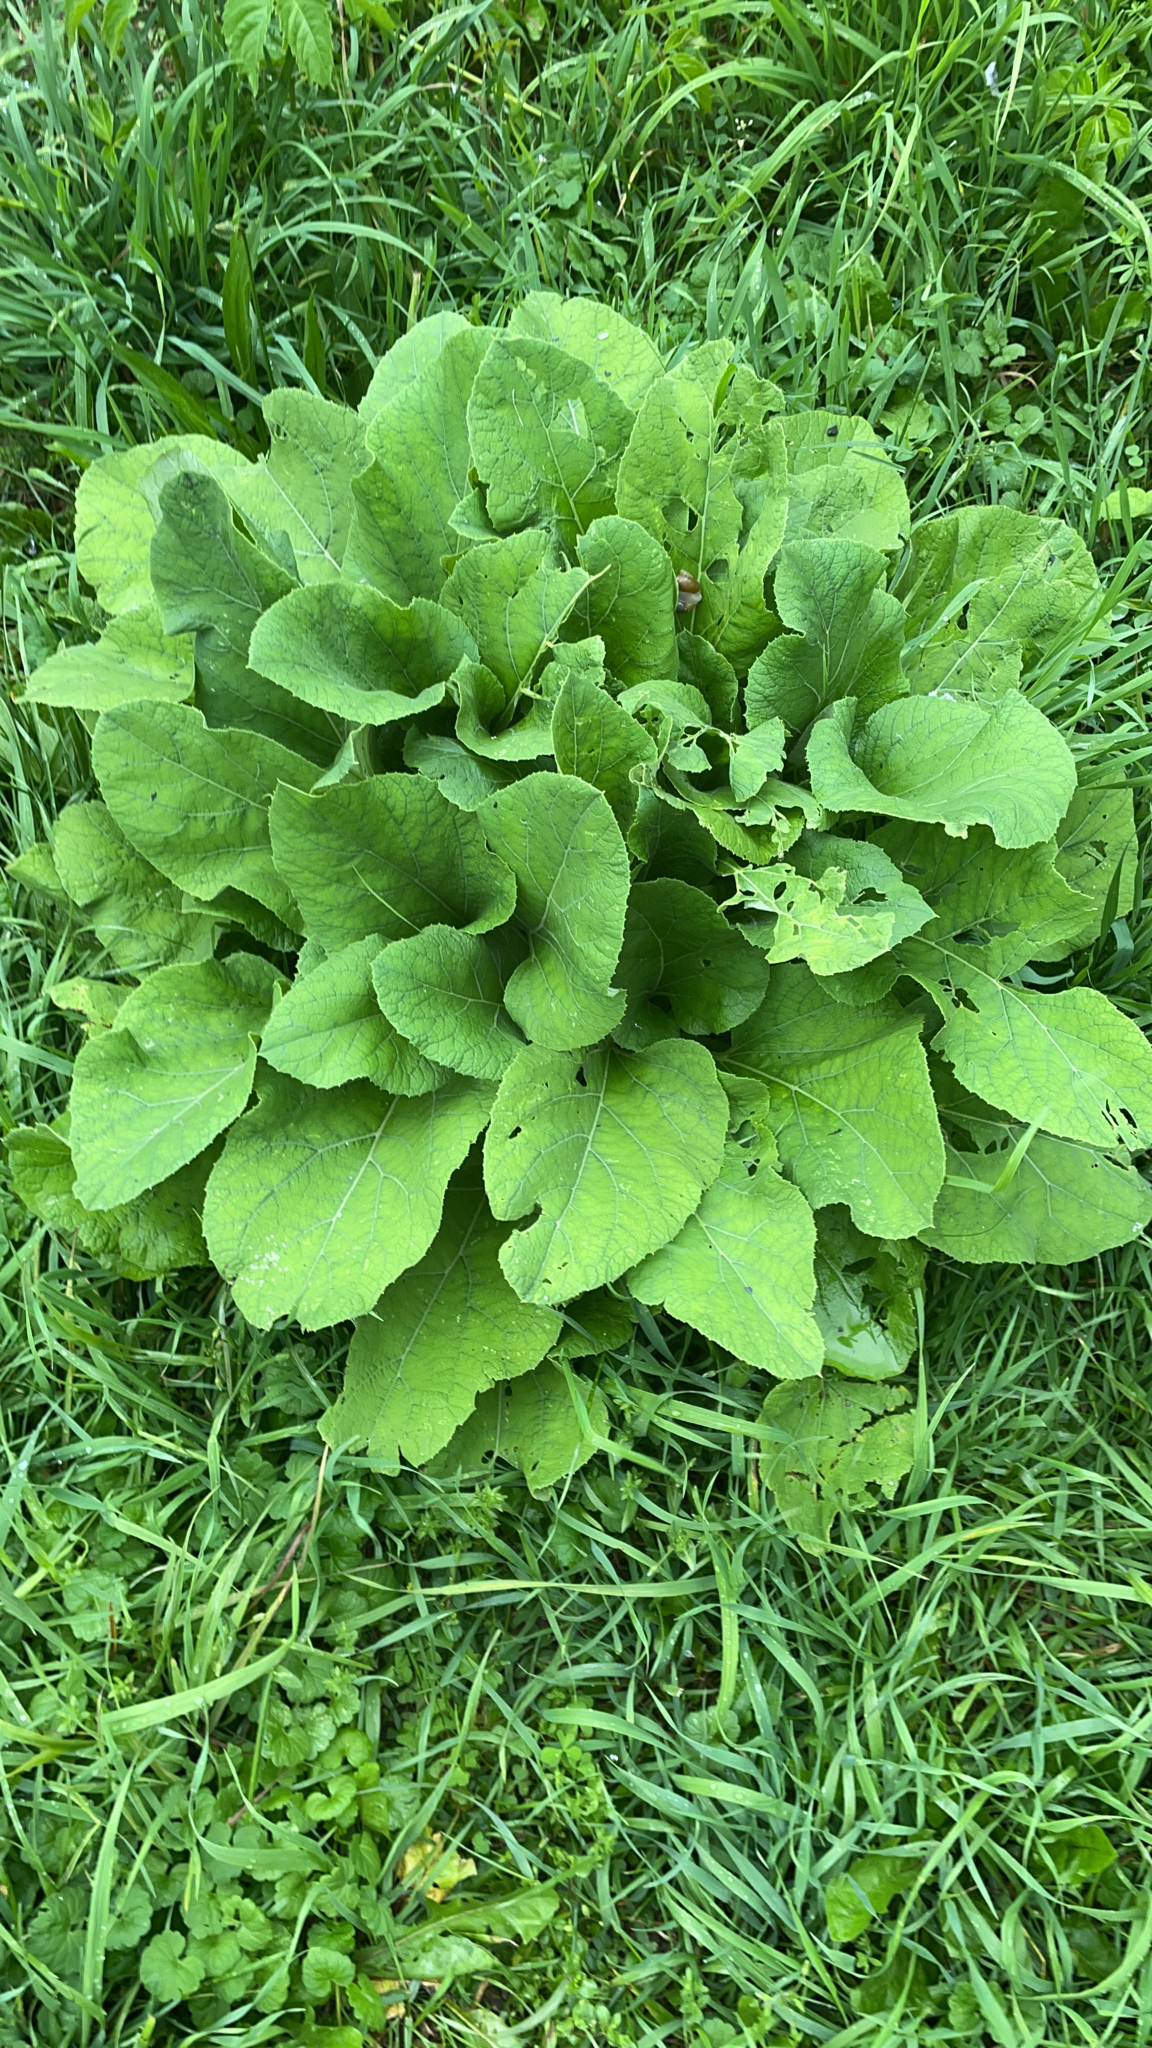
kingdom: Plantae
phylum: Tracheophyta
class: Magnoliopsida
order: Asterales
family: Asteraceae
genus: Arctium
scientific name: Arctium
